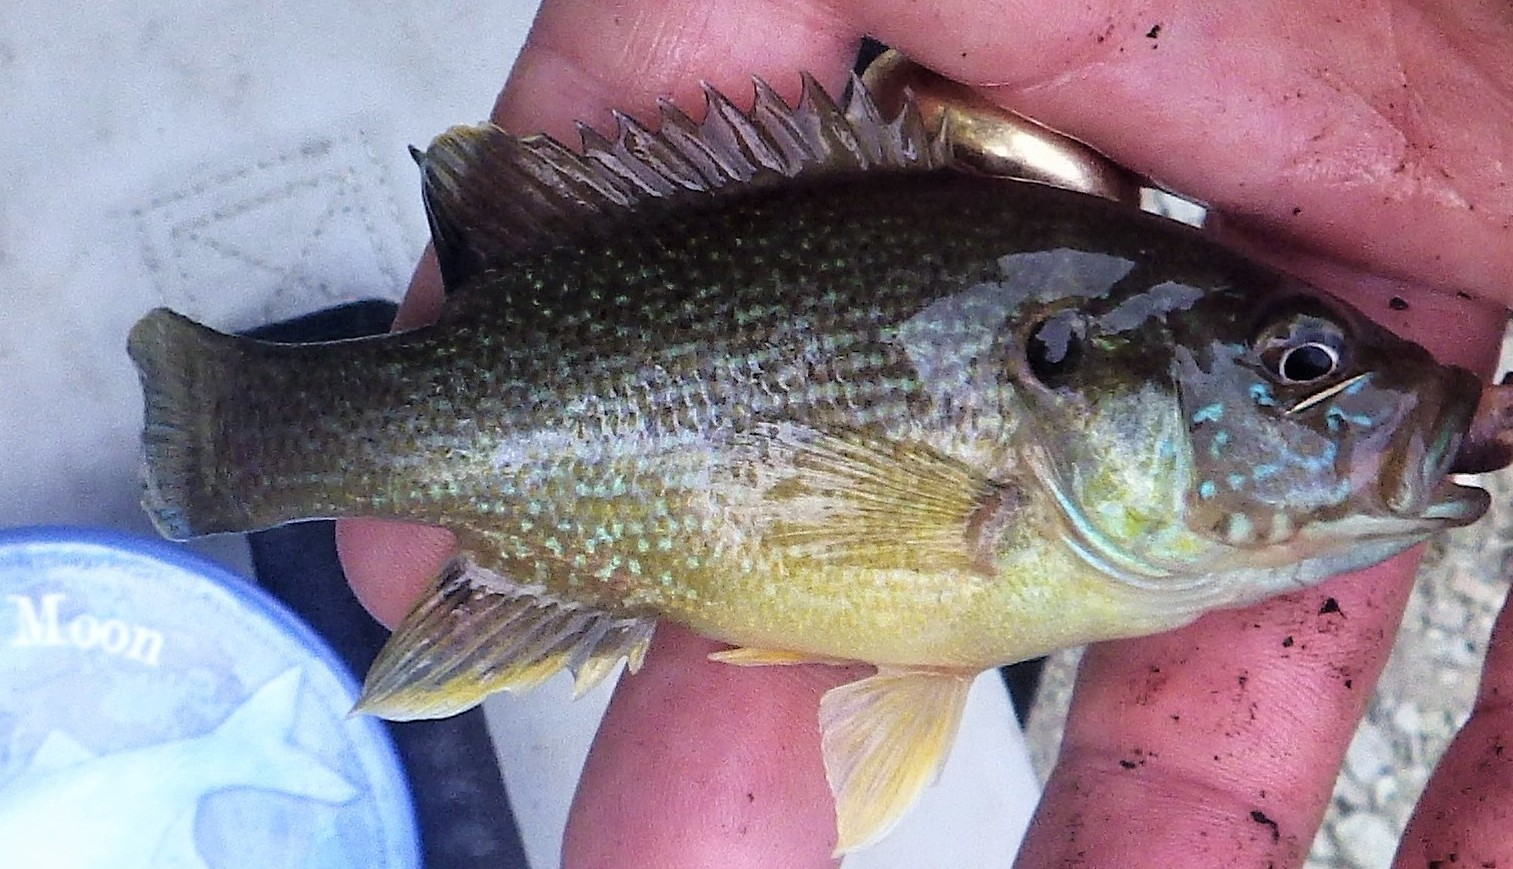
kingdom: Animalia
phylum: Chordata
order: Perciformes
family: Centrarchidae
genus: Lepomis
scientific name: Lepomis cyanellus
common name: Green sunfish
